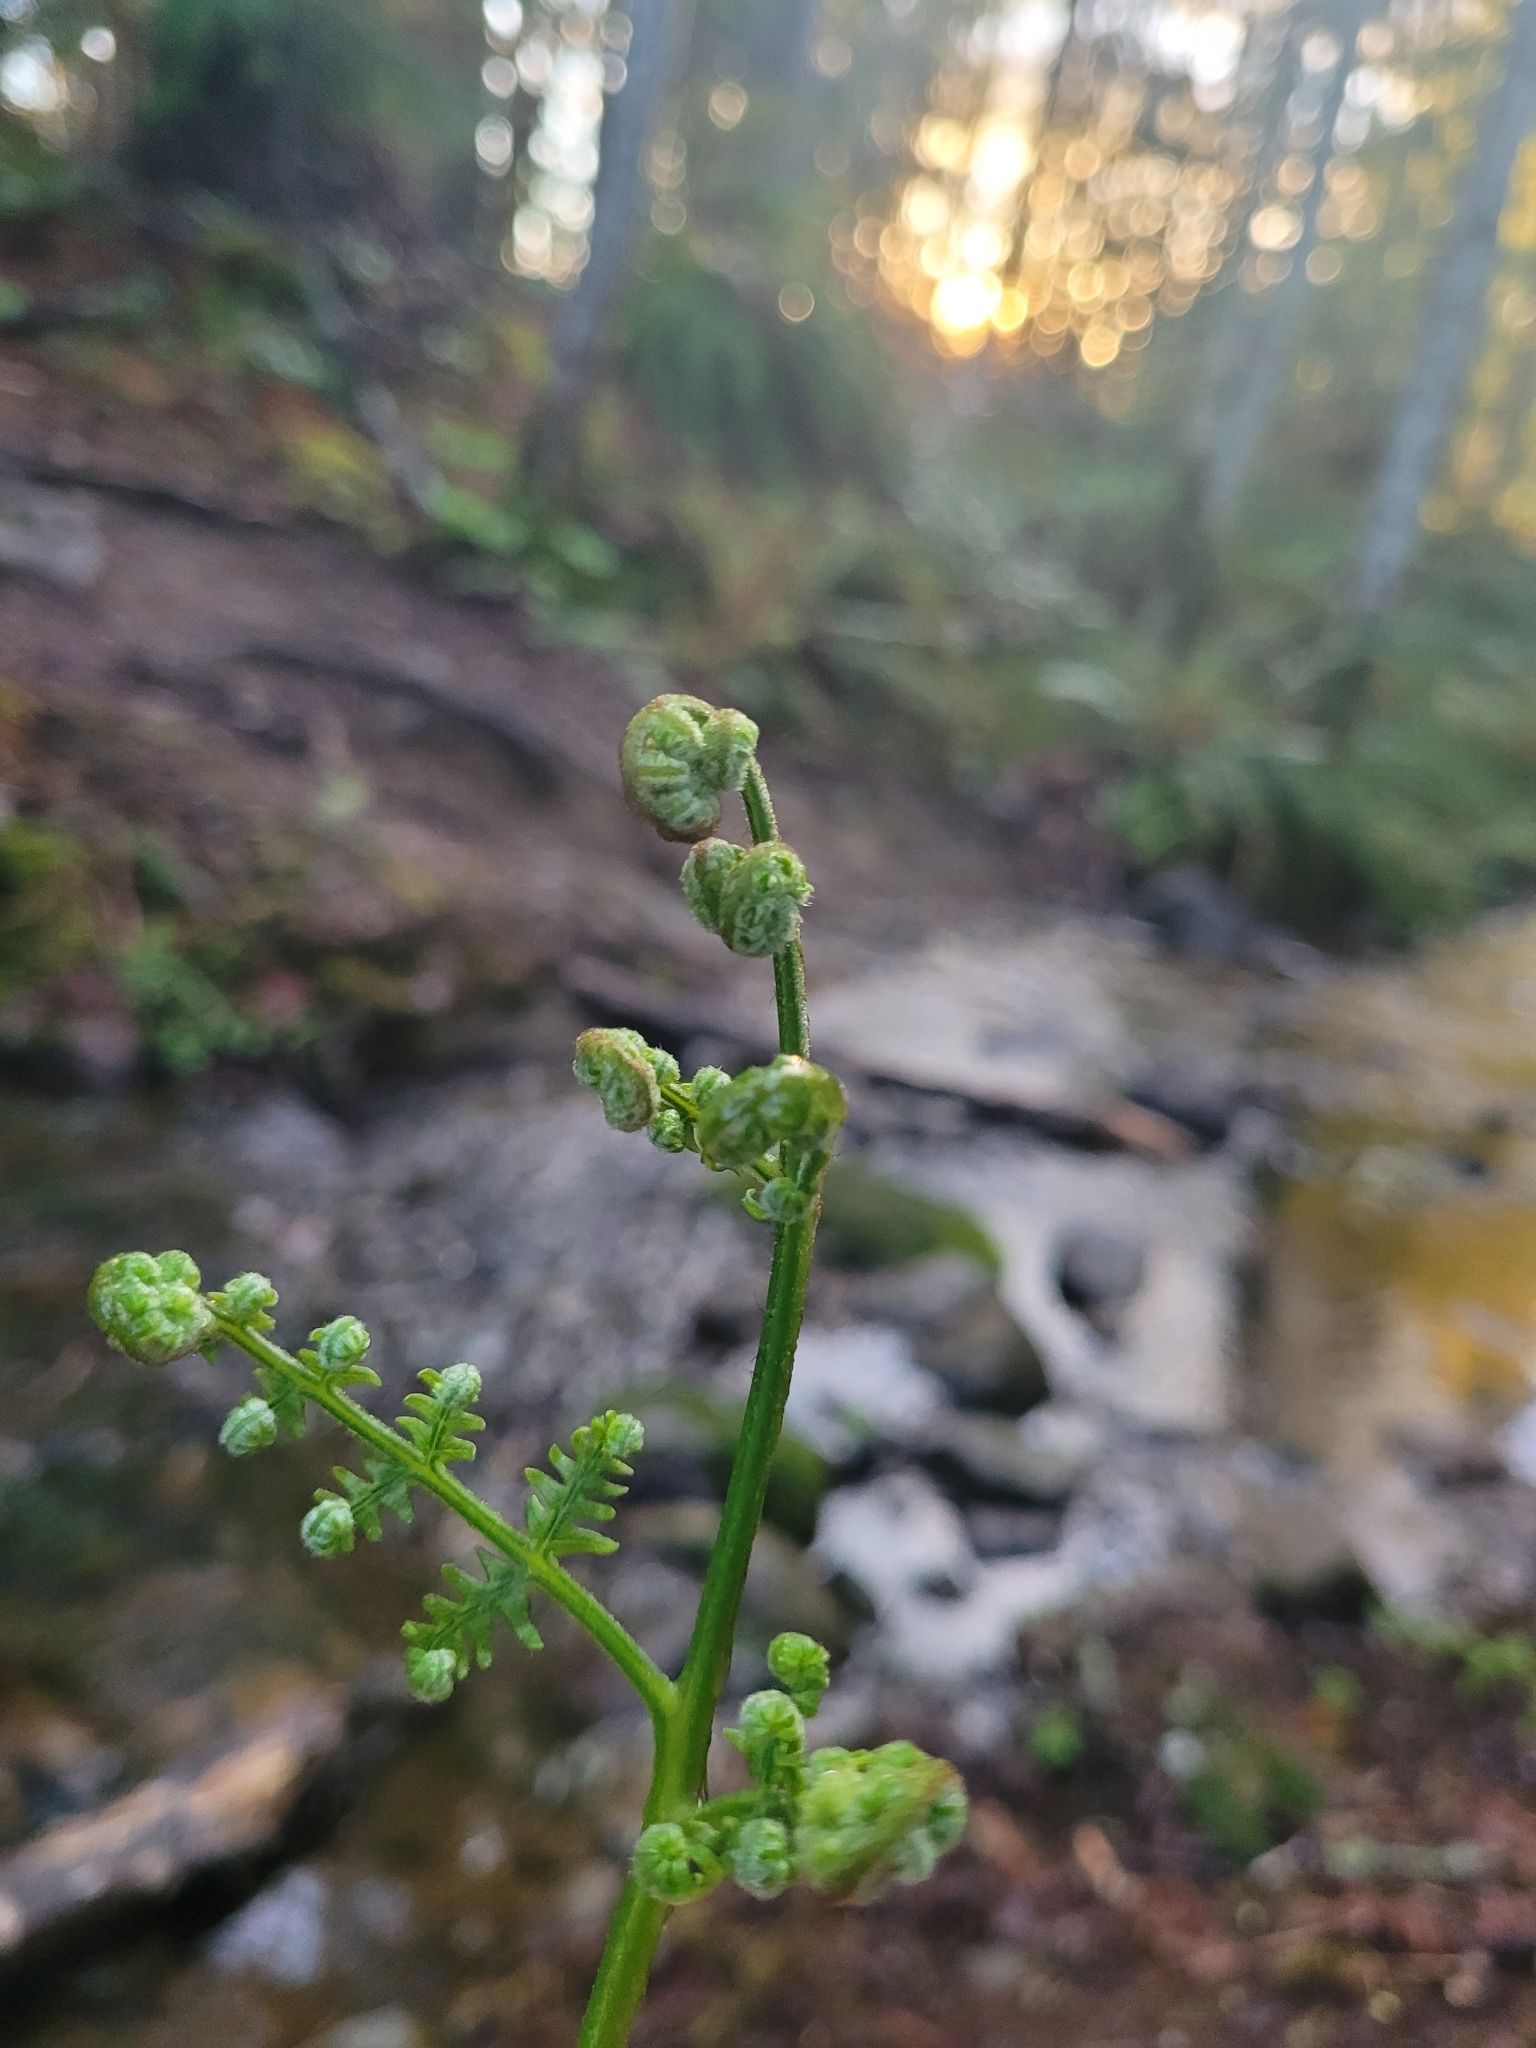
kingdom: Plantae
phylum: Tracheophyta
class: Polypodiopsida
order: Polypodiales
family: Dennstaedtiaceae
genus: Pteridium
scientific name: Pteridium aquilinum
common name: Bracken
